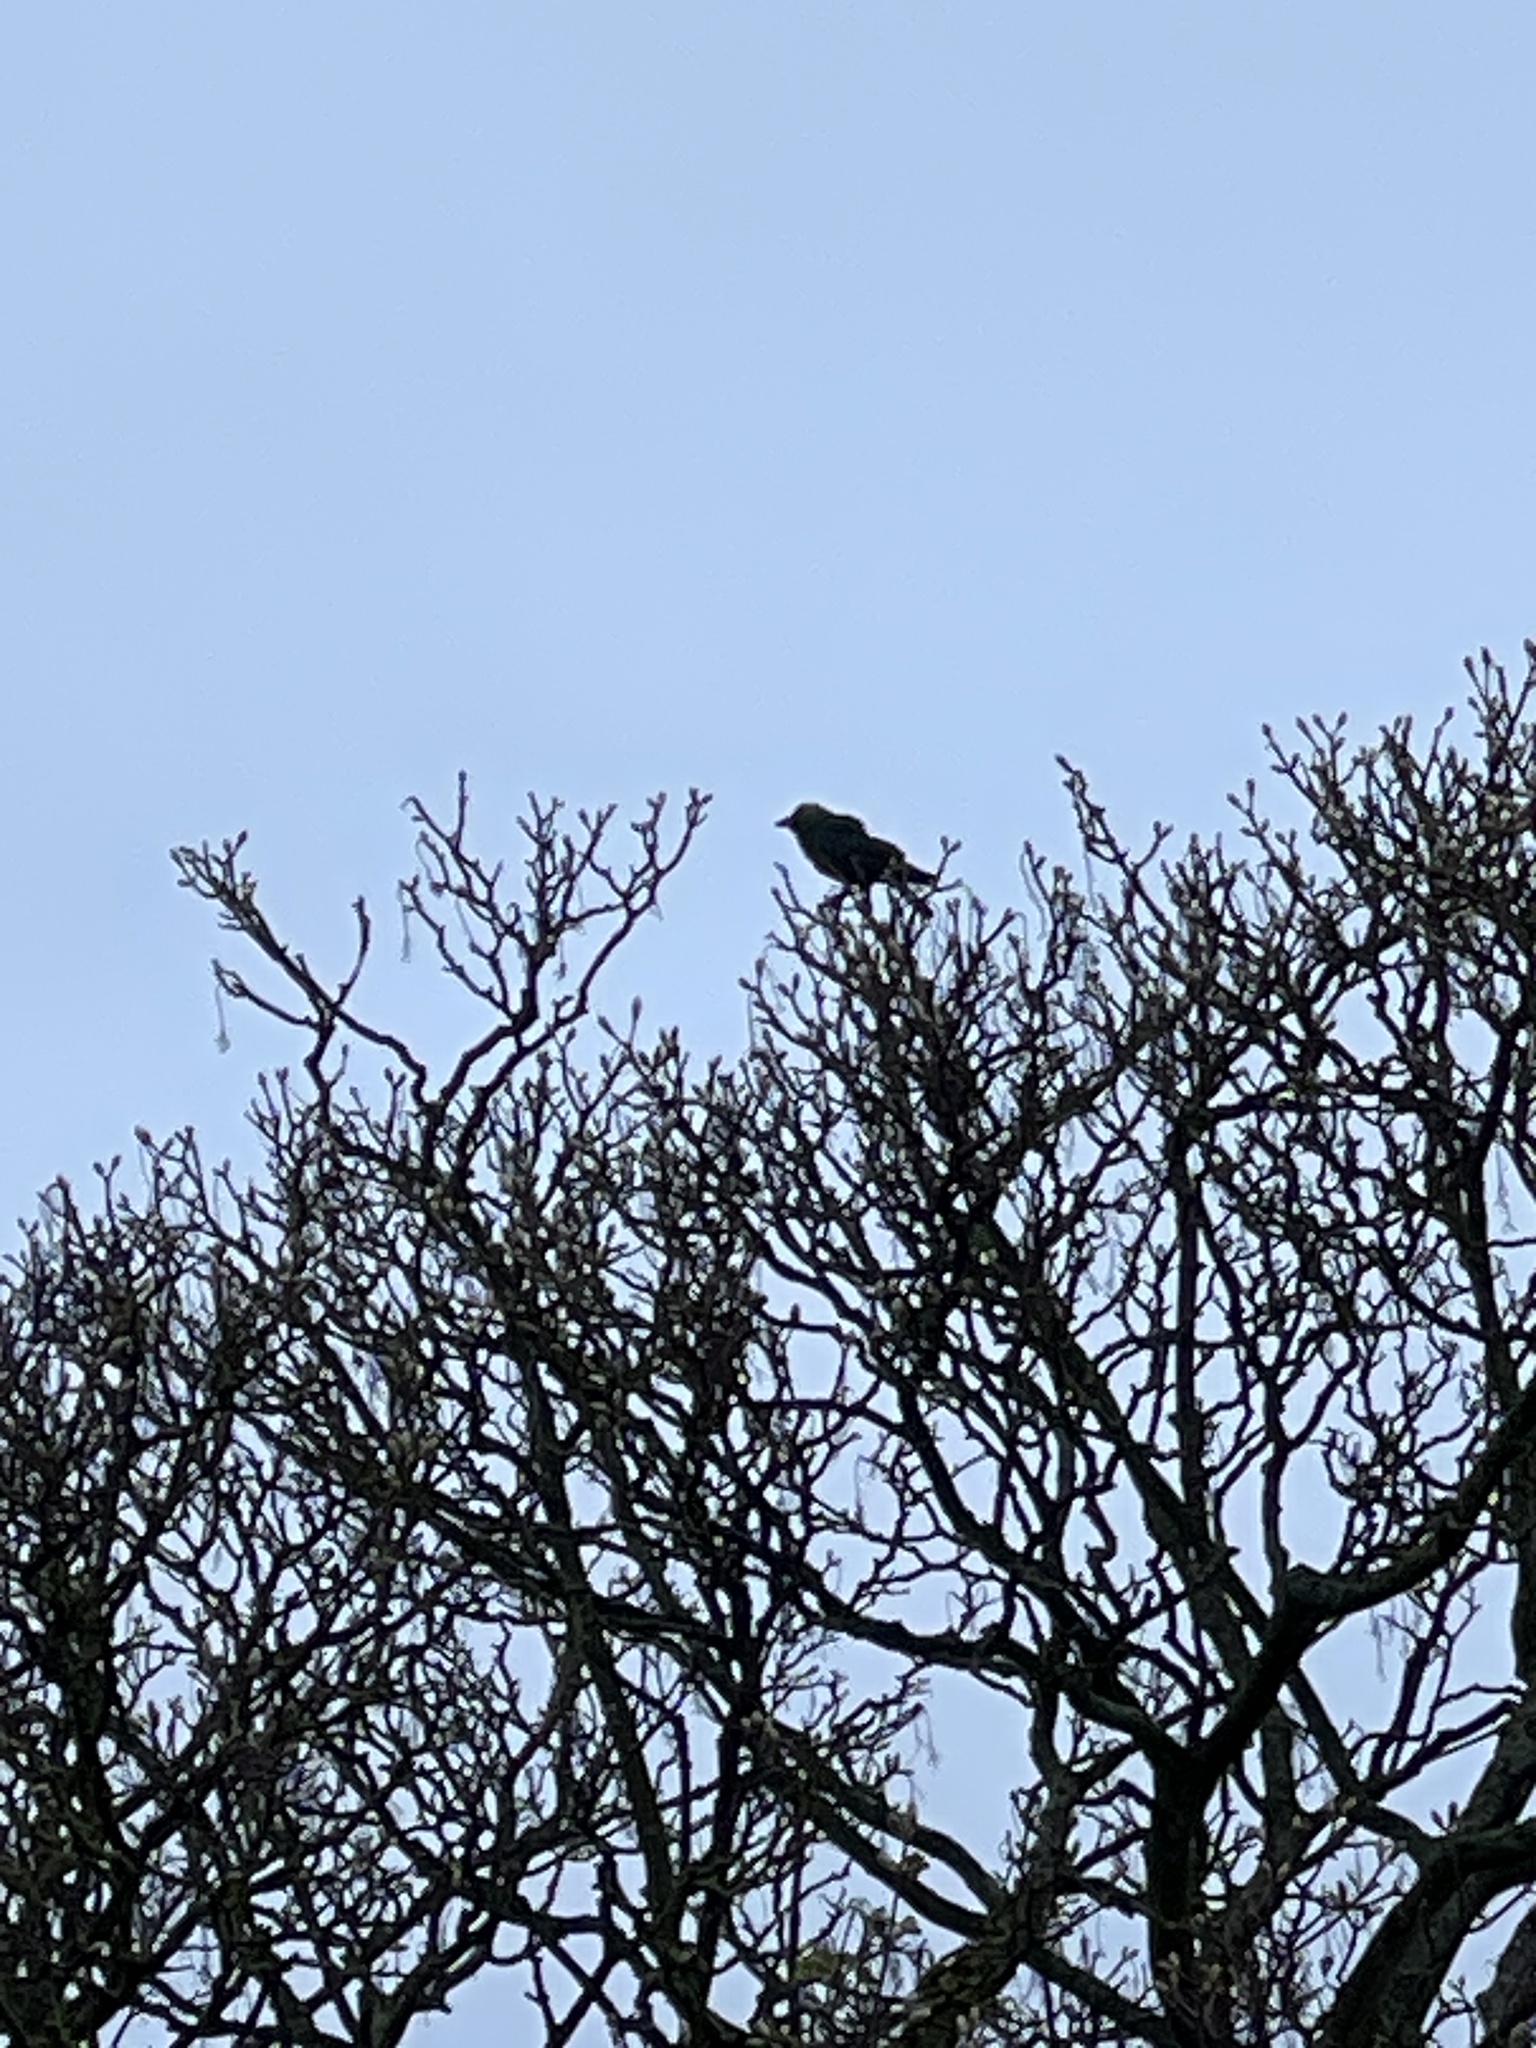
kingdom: Animalia
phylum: Chordata
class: Aves
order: Passeriformes
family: Corvidae
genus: Coloeus
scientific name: Coloeus monedula
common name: Western jackdaw
